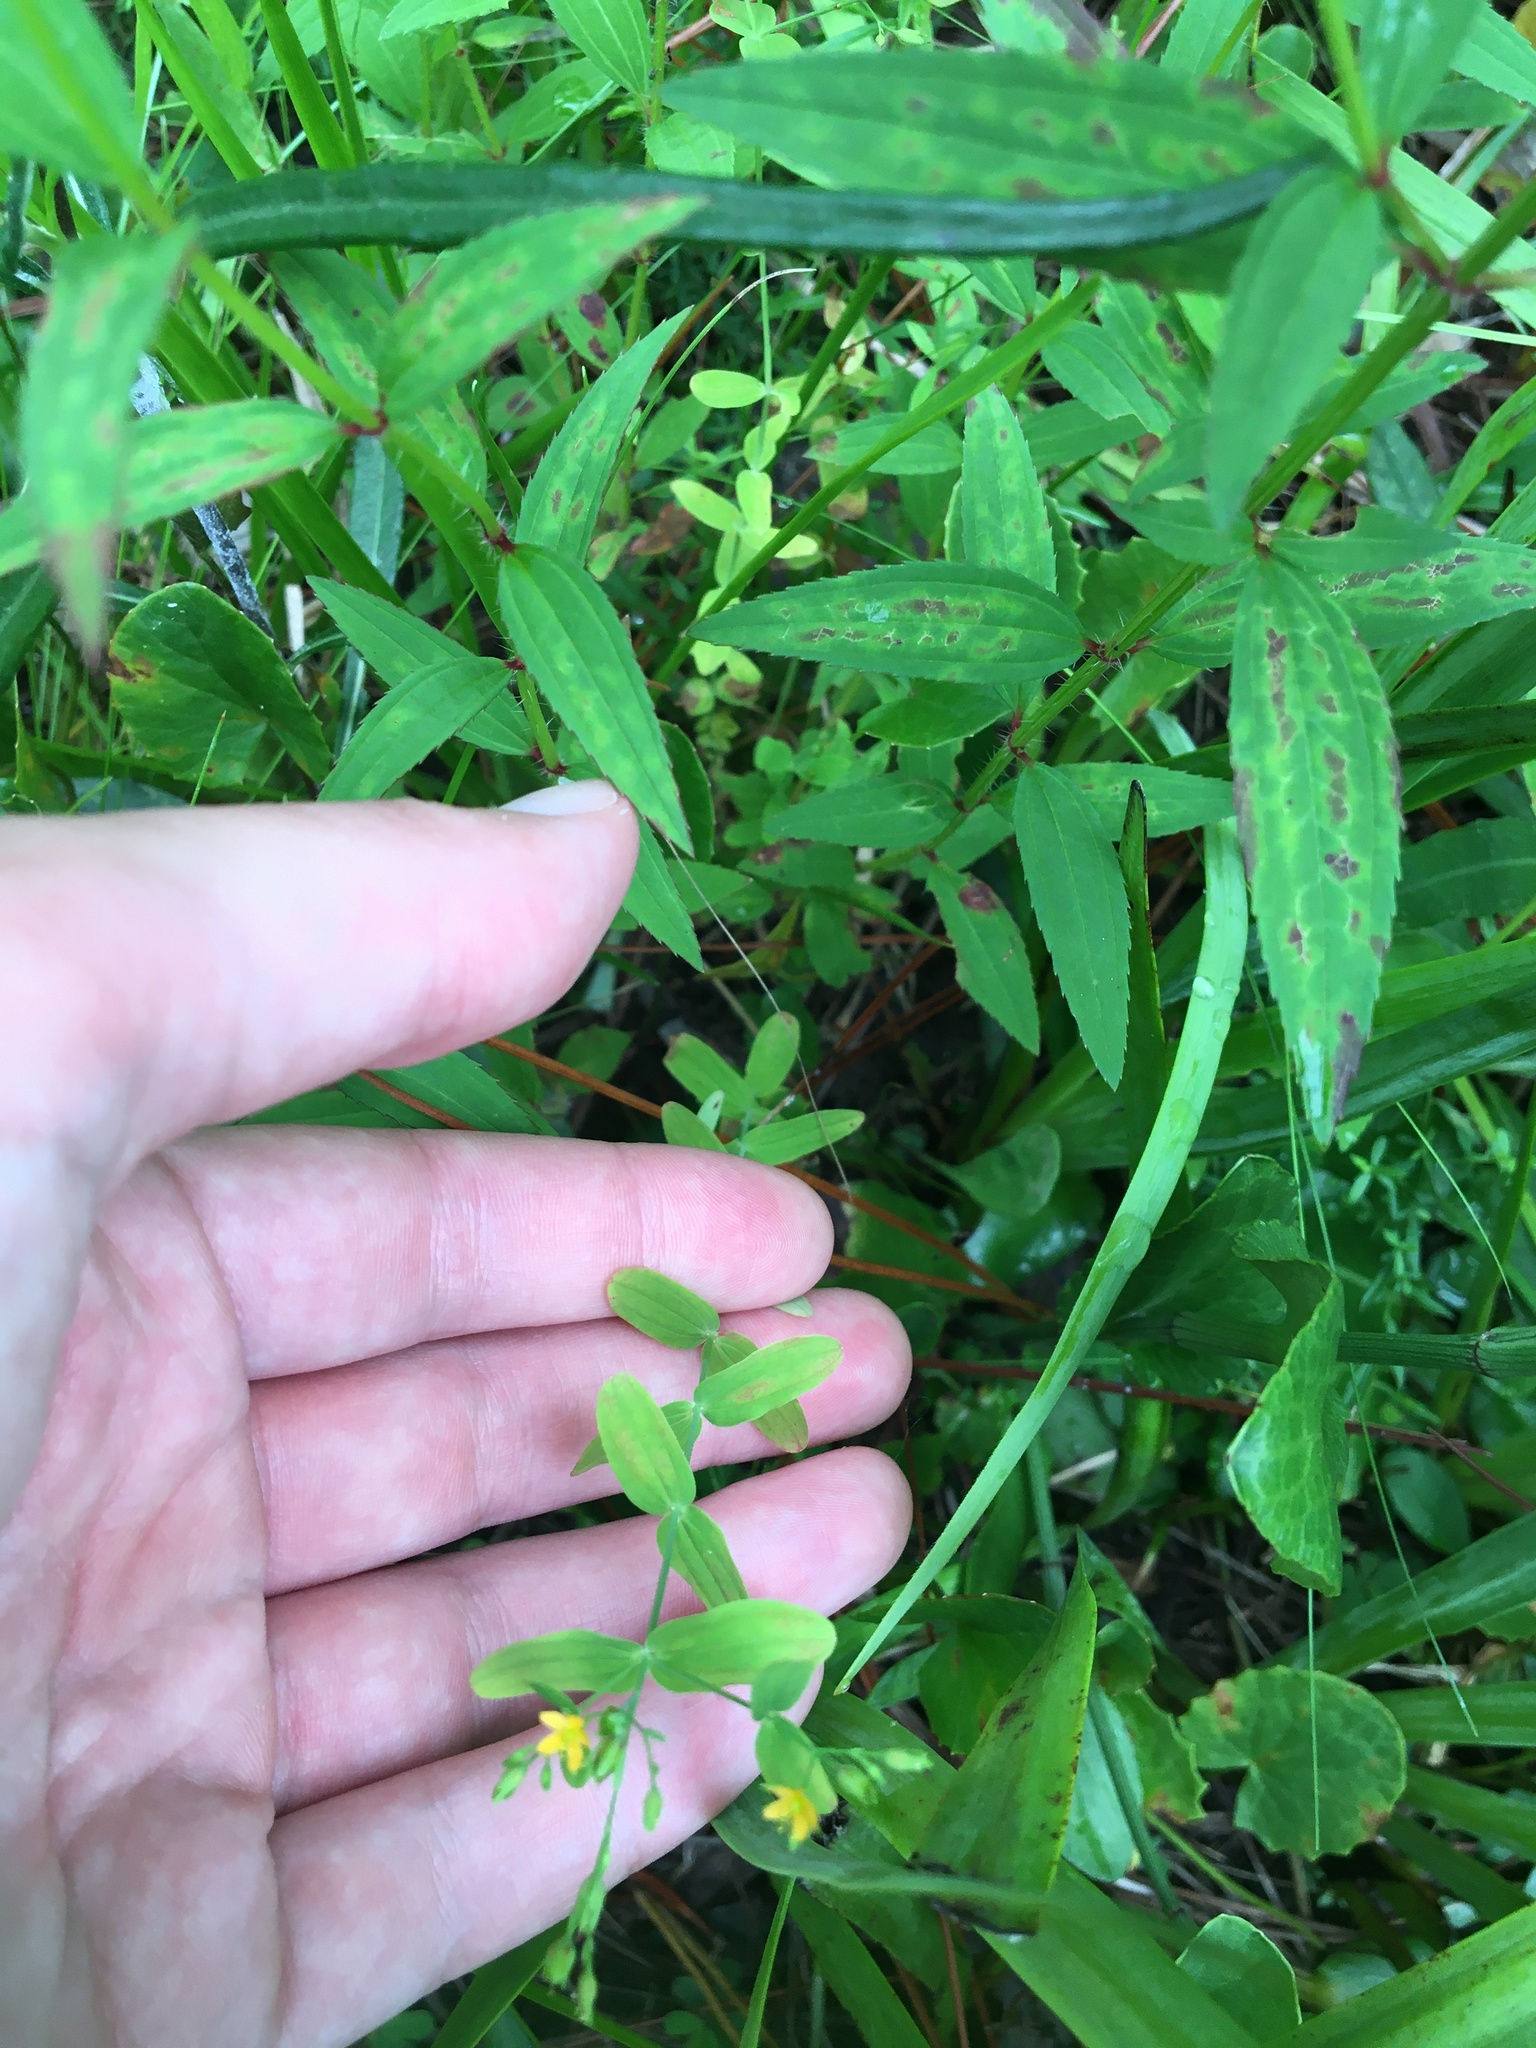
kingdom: Plantae
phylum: Tracheophyta
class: Magnoliopsida
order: Malpighiales
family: Hypericaceae
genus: Hypericum
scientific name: Hypericum mutilum
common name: Dwarf st. john's-wort
